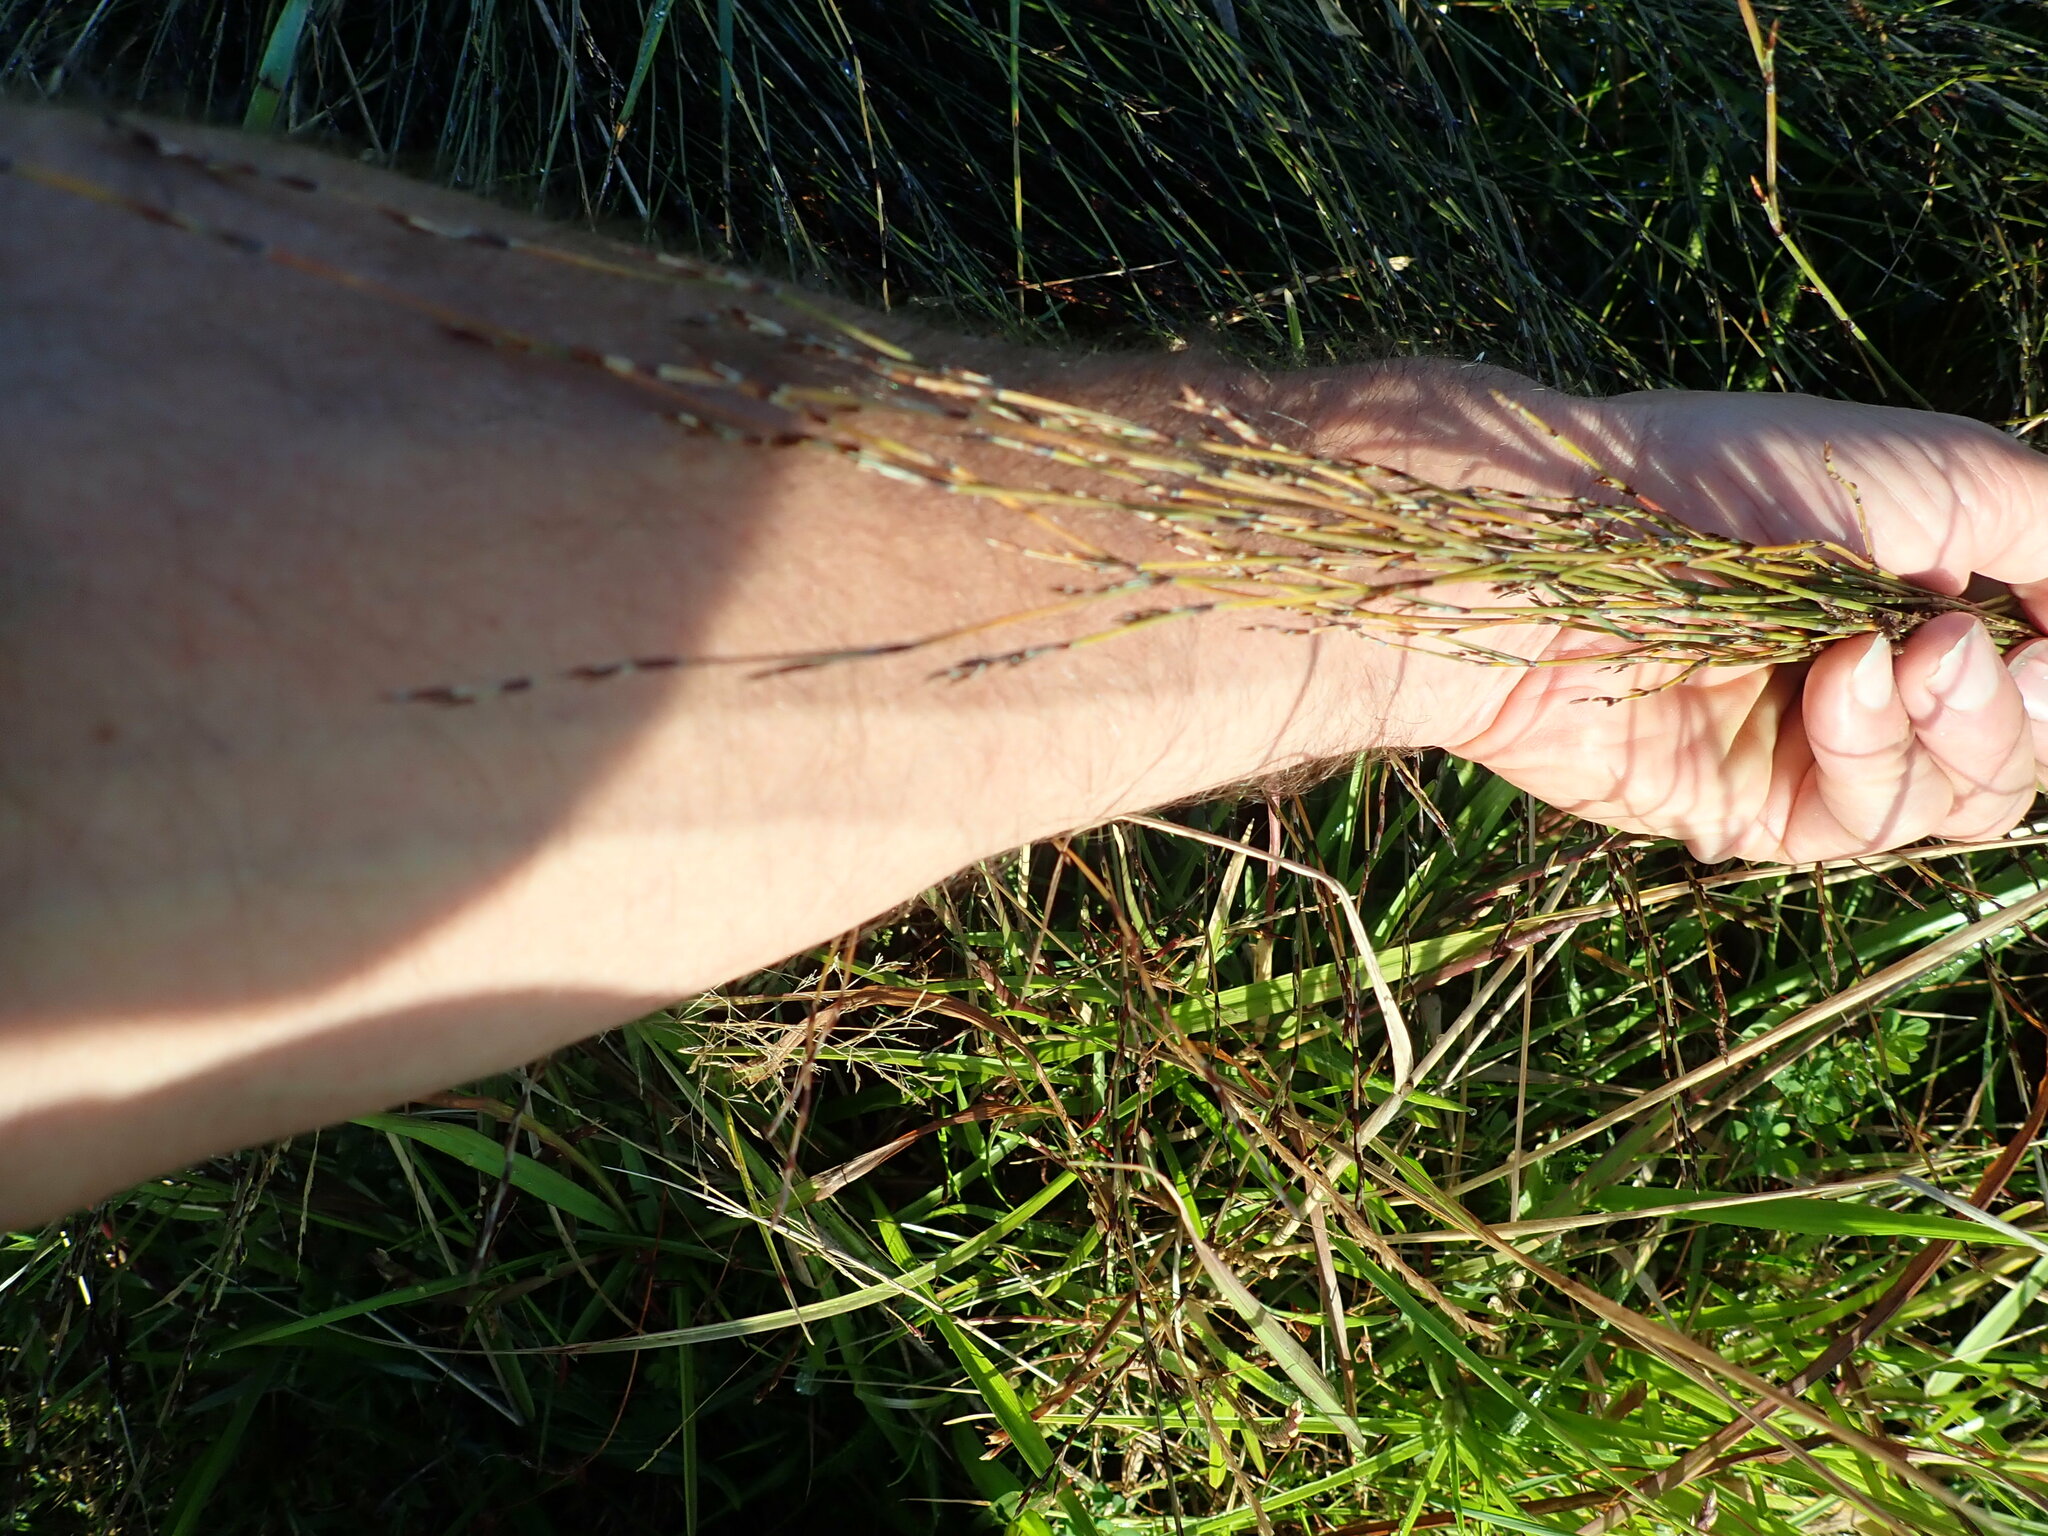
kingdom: Plantae
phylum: Tracheophyta
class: Liliopsida
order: Poales
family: Restionaceae
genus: Apodasmia
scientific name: Apodasmia similis
